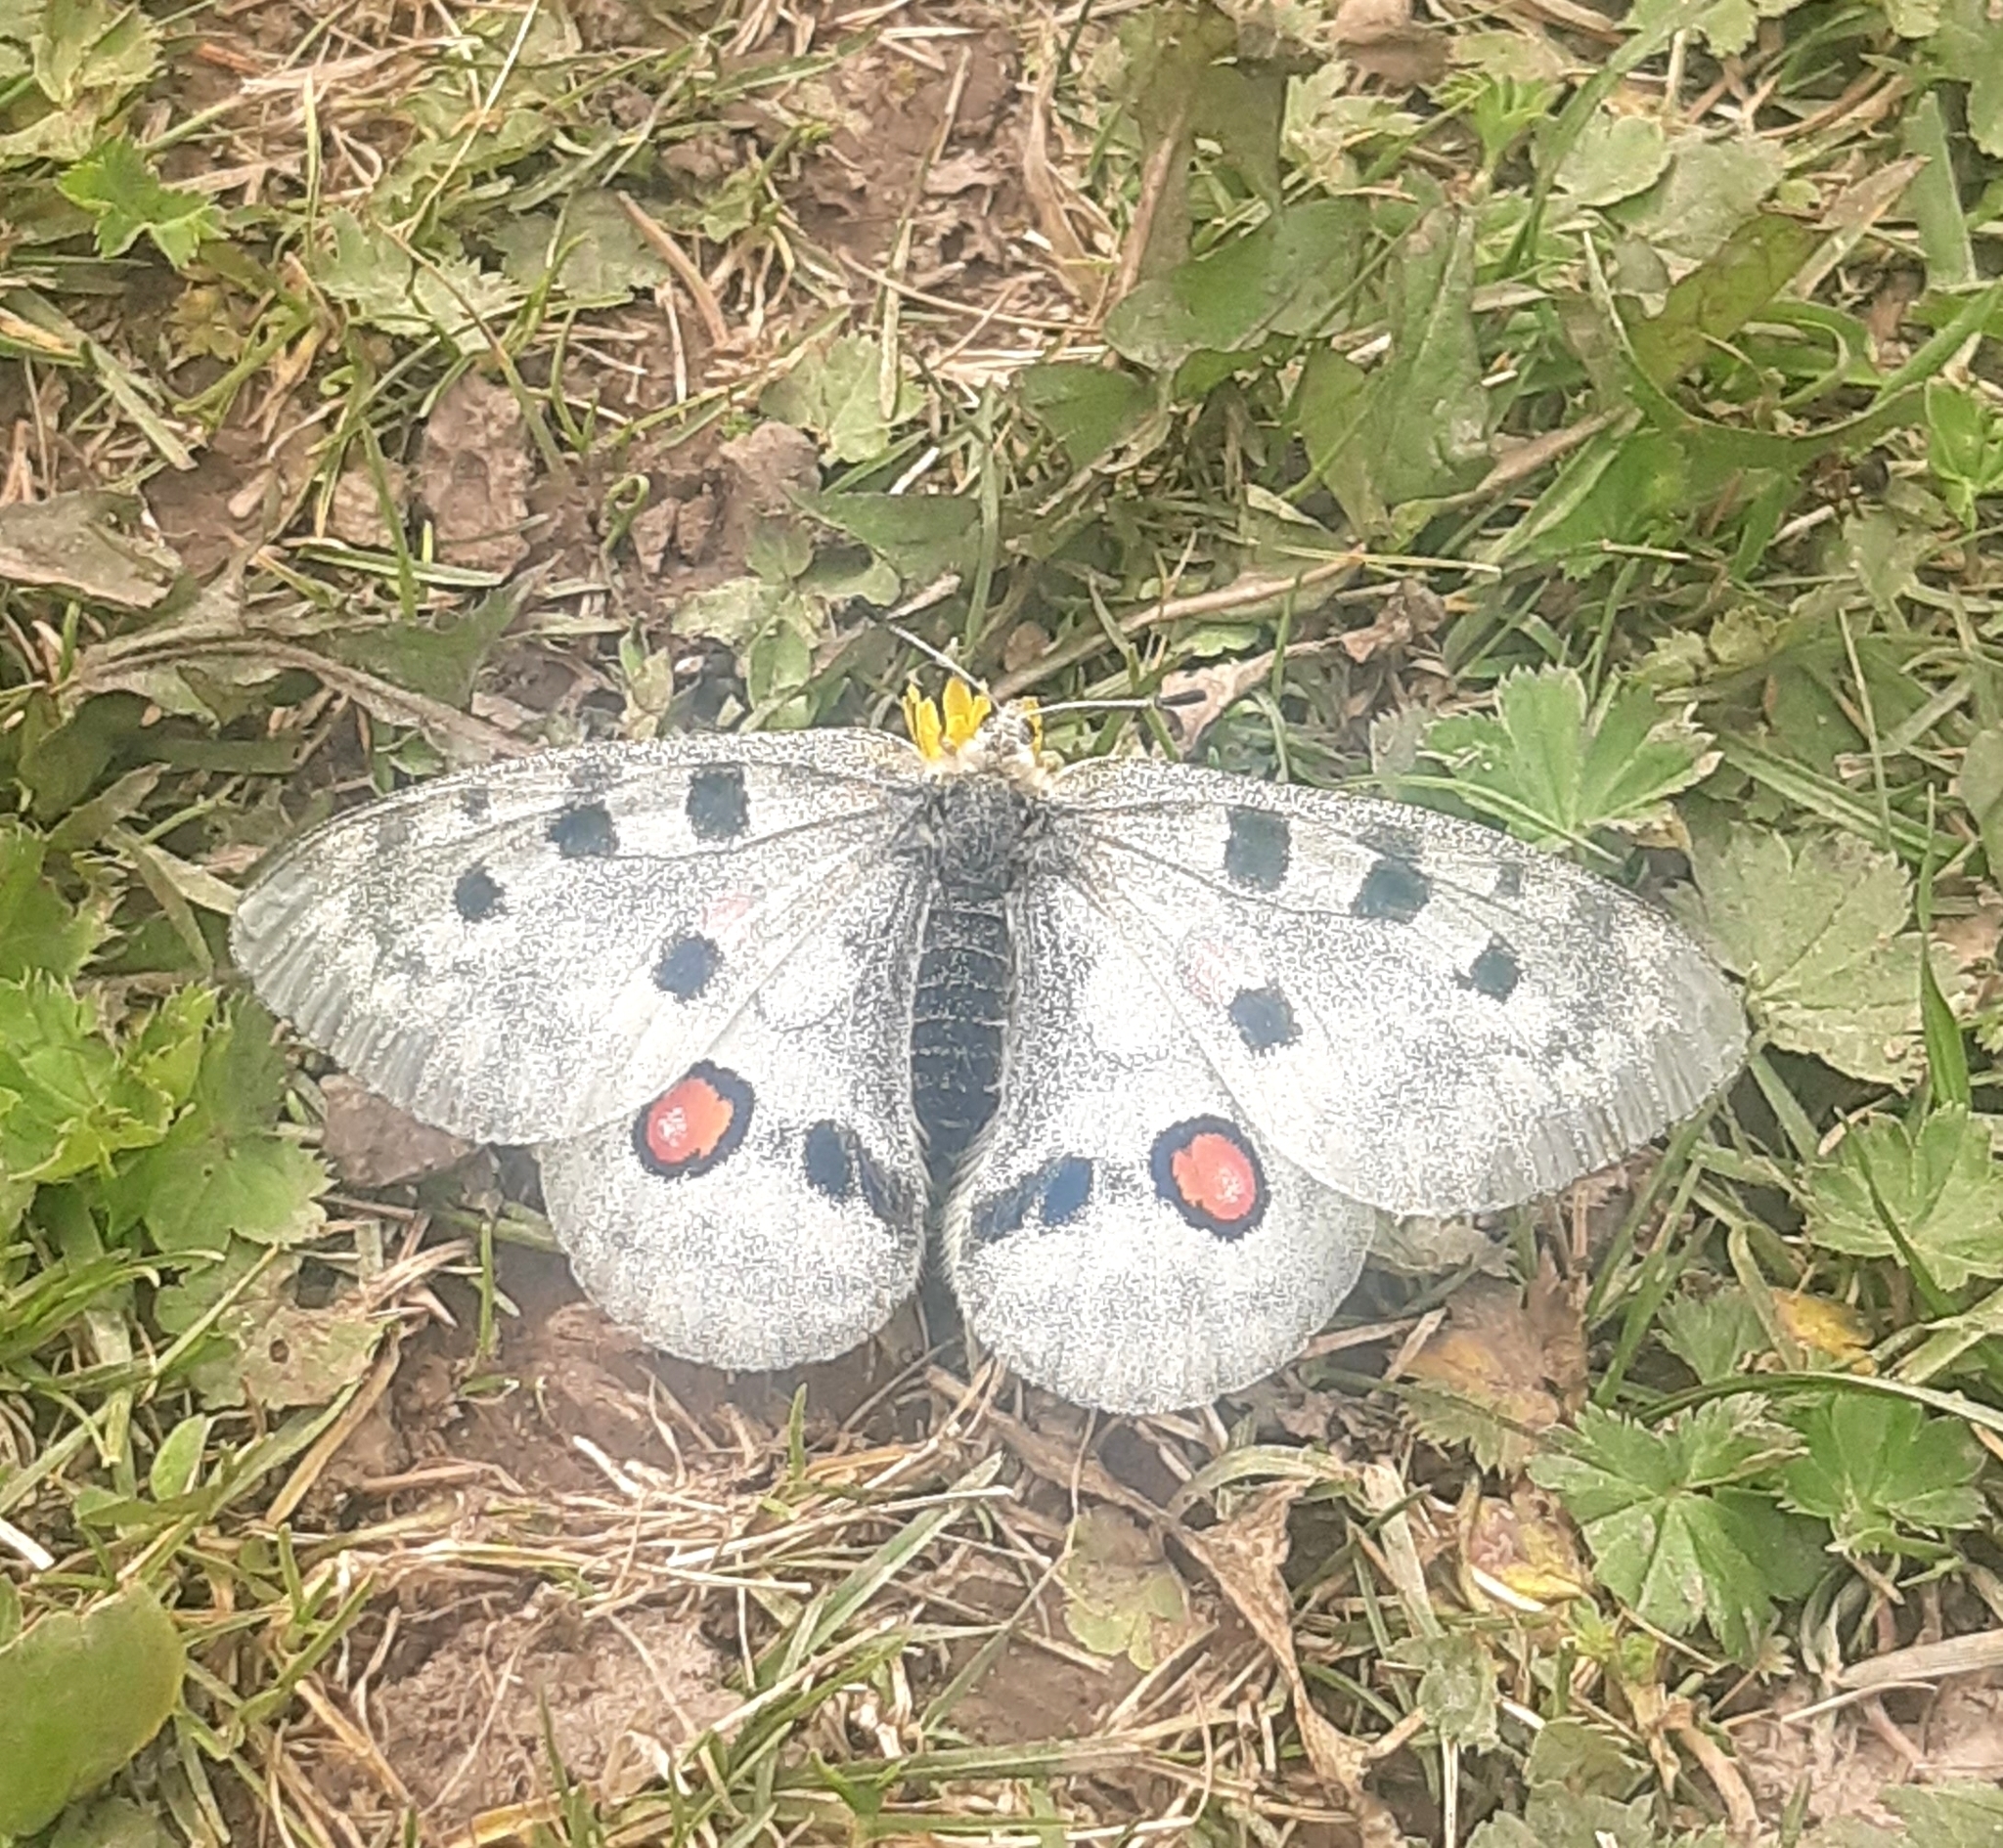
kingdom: Animalia
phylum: Arthropoda
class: Insecta
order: Lepidoptera
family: Papilionidae
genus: Parnassius
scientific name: Parnassius apollo
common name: Apollo
